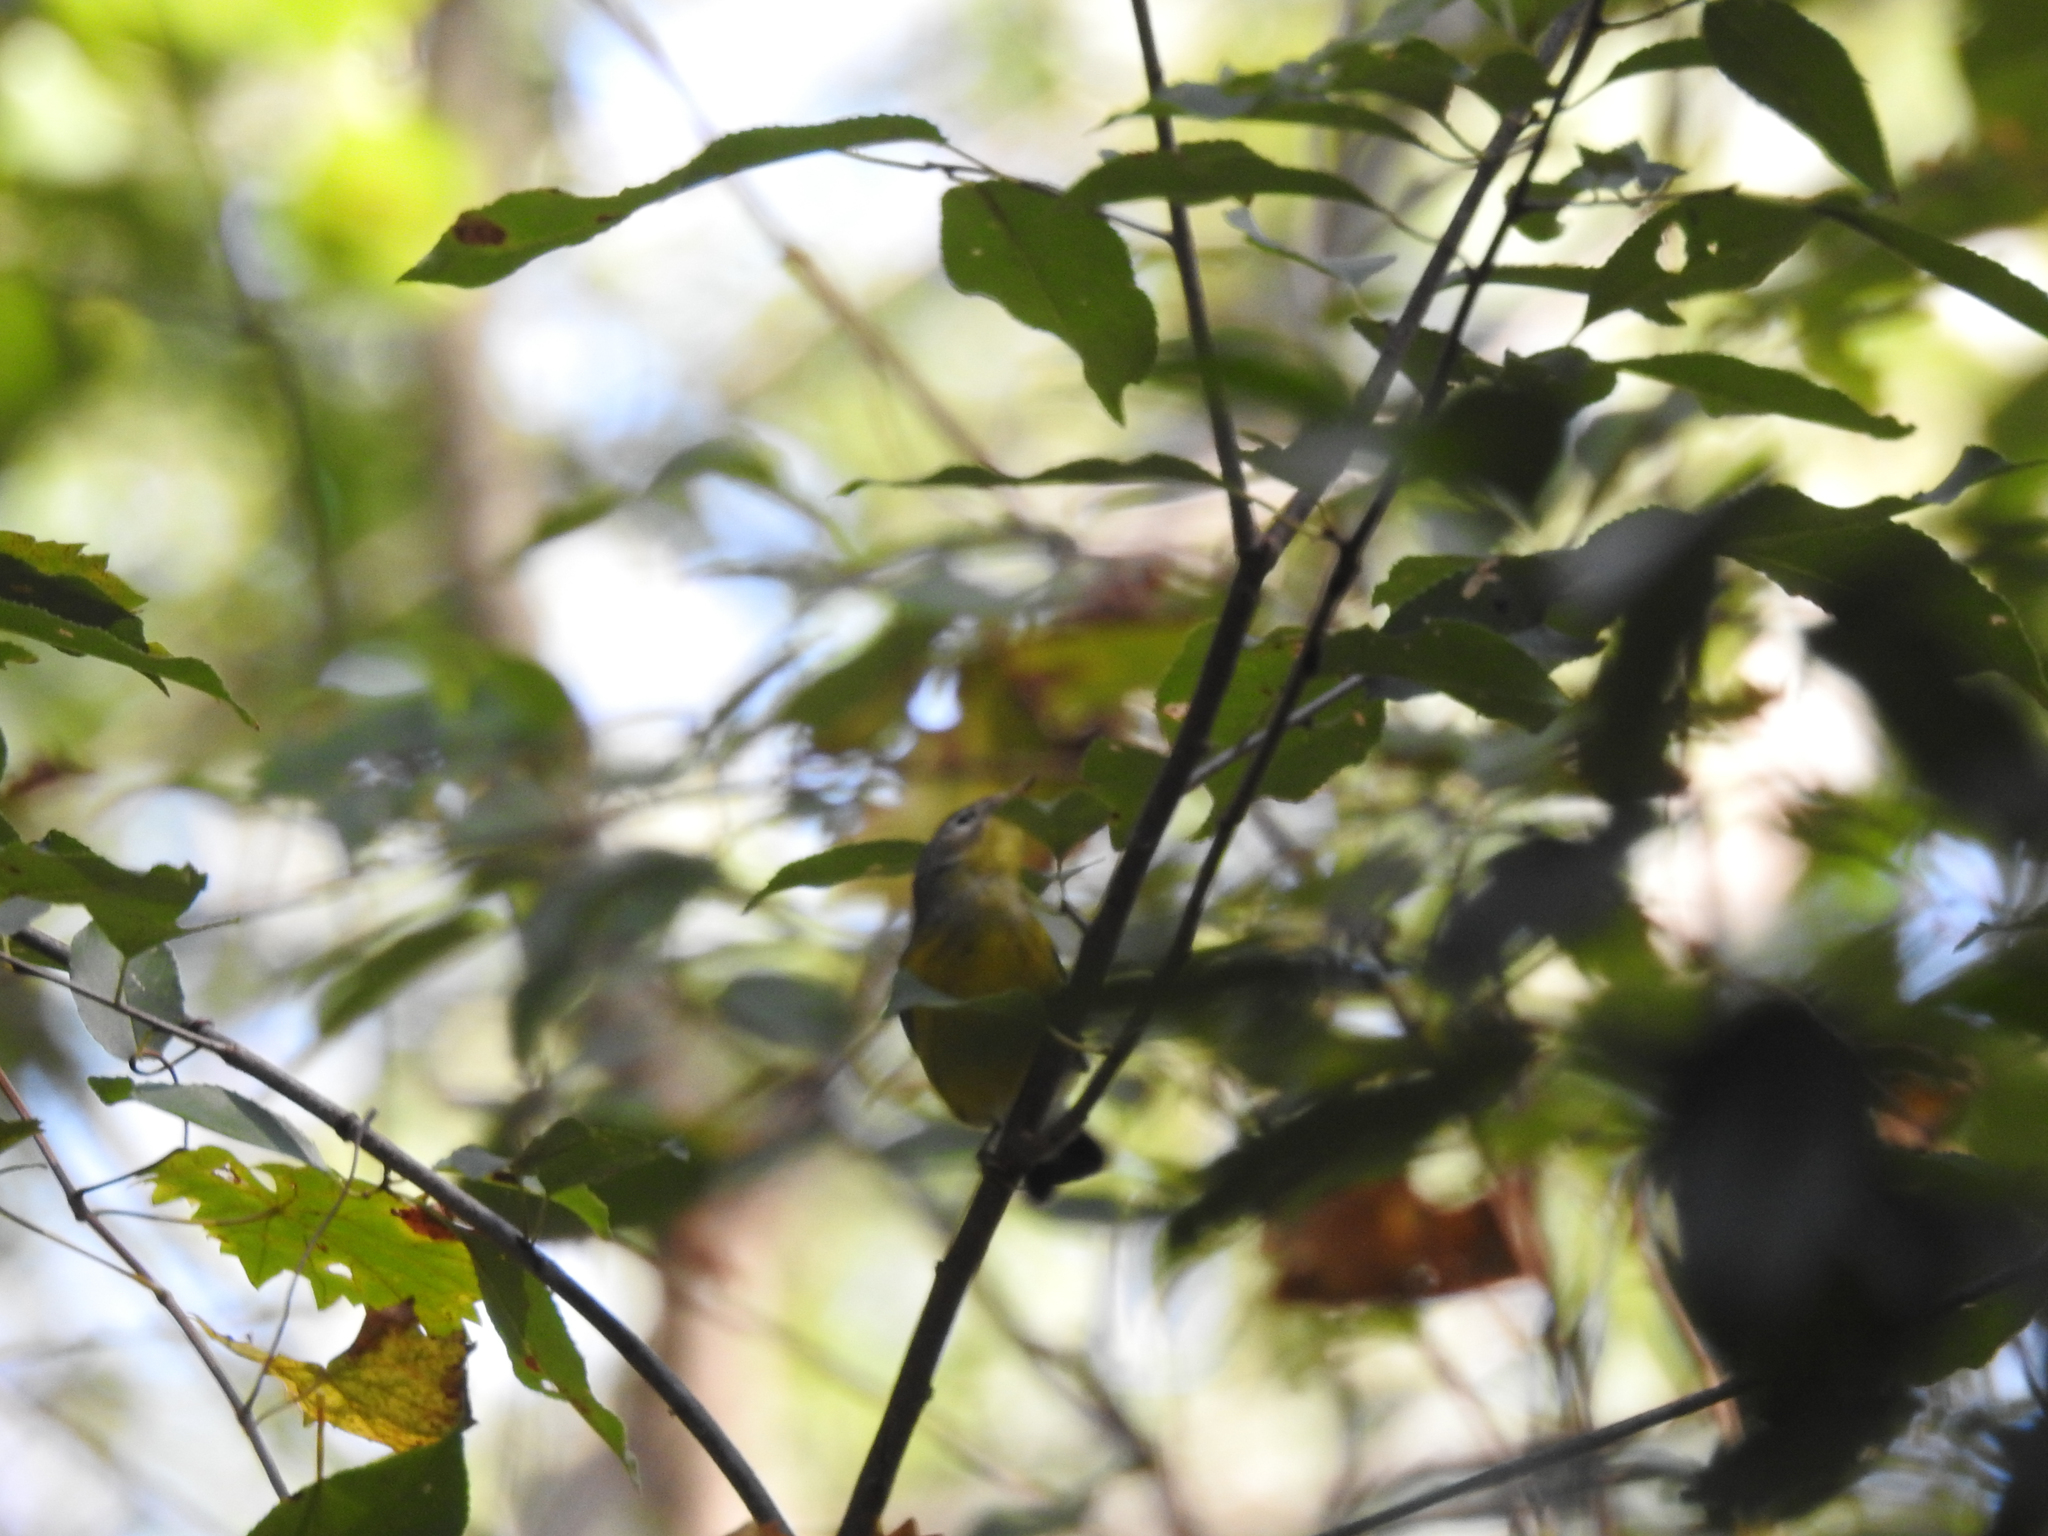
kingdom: Animalia
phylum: Chordata
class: Aves
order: Passeriformes
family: Parulidae
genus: Setophaga
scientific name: Setophaga magnolia
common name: Magnolia warbler
